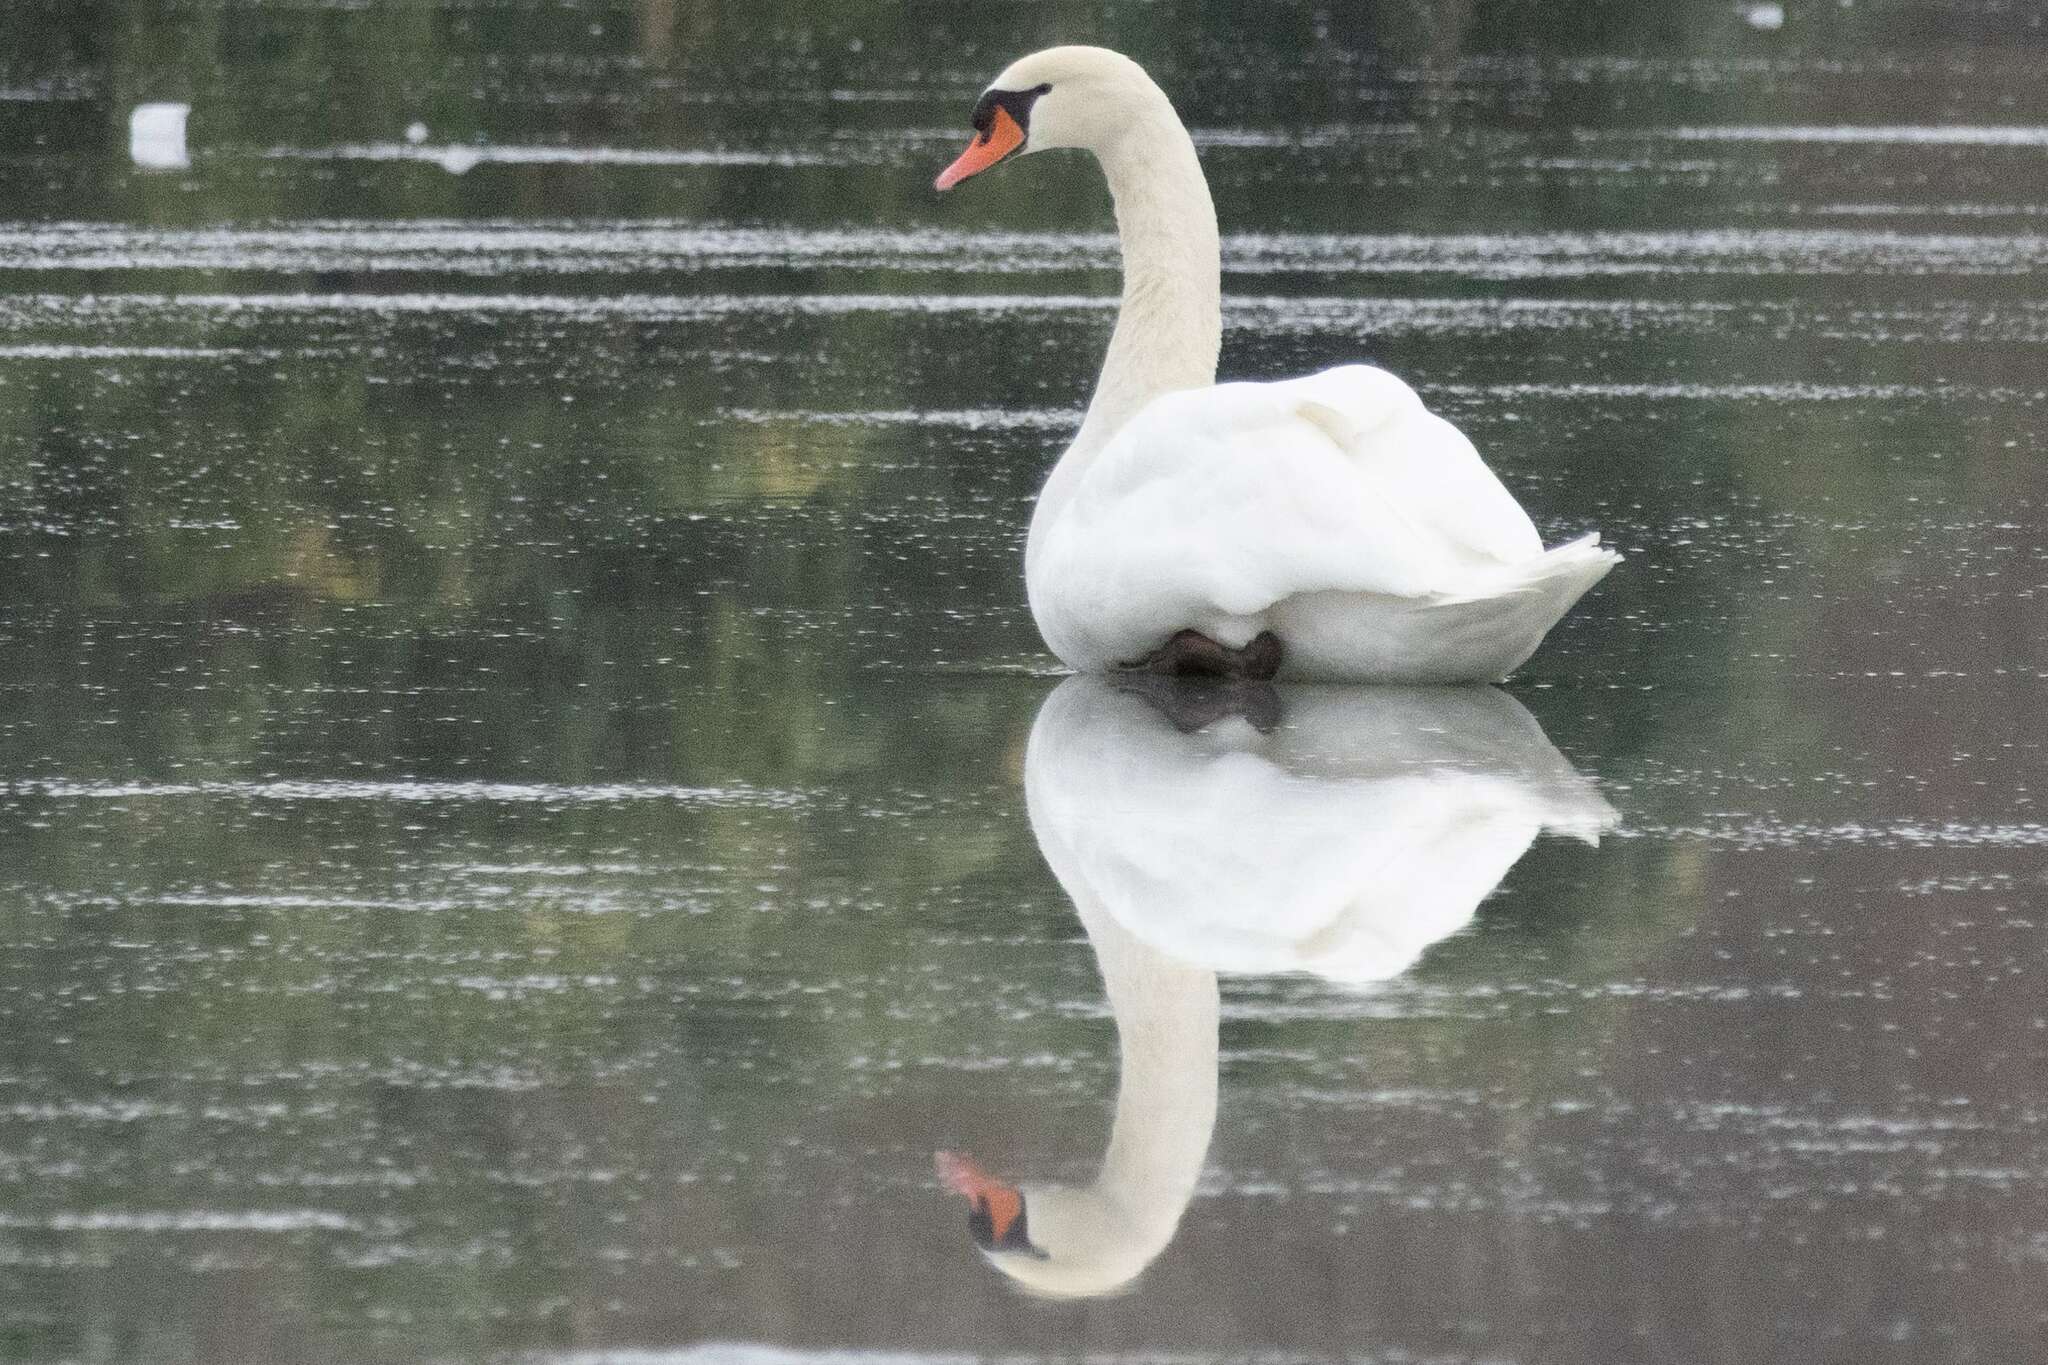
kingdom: Animalia
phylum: Chordata
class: Aves
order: Anseriformes
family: Anatidae
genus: Cygnus
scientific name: Cygnus olor
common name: Mute swan
